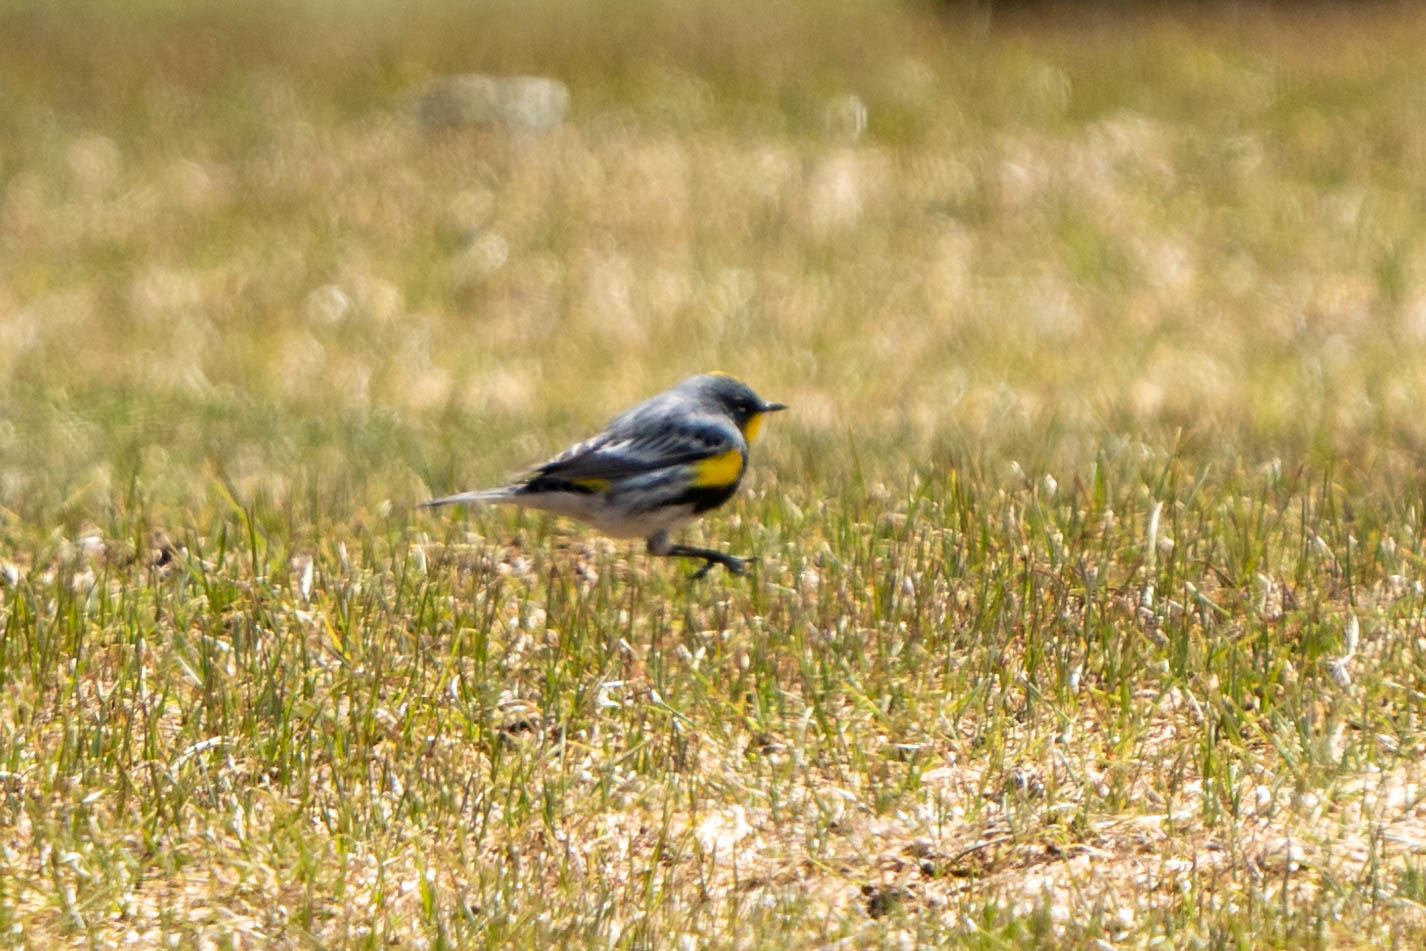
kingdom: Animalia
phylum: Chordata
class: Aves
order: Passeriformes
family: Parulidae
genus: Setophaga
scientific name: Setophaga auduboni
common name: Audubon's warbler
